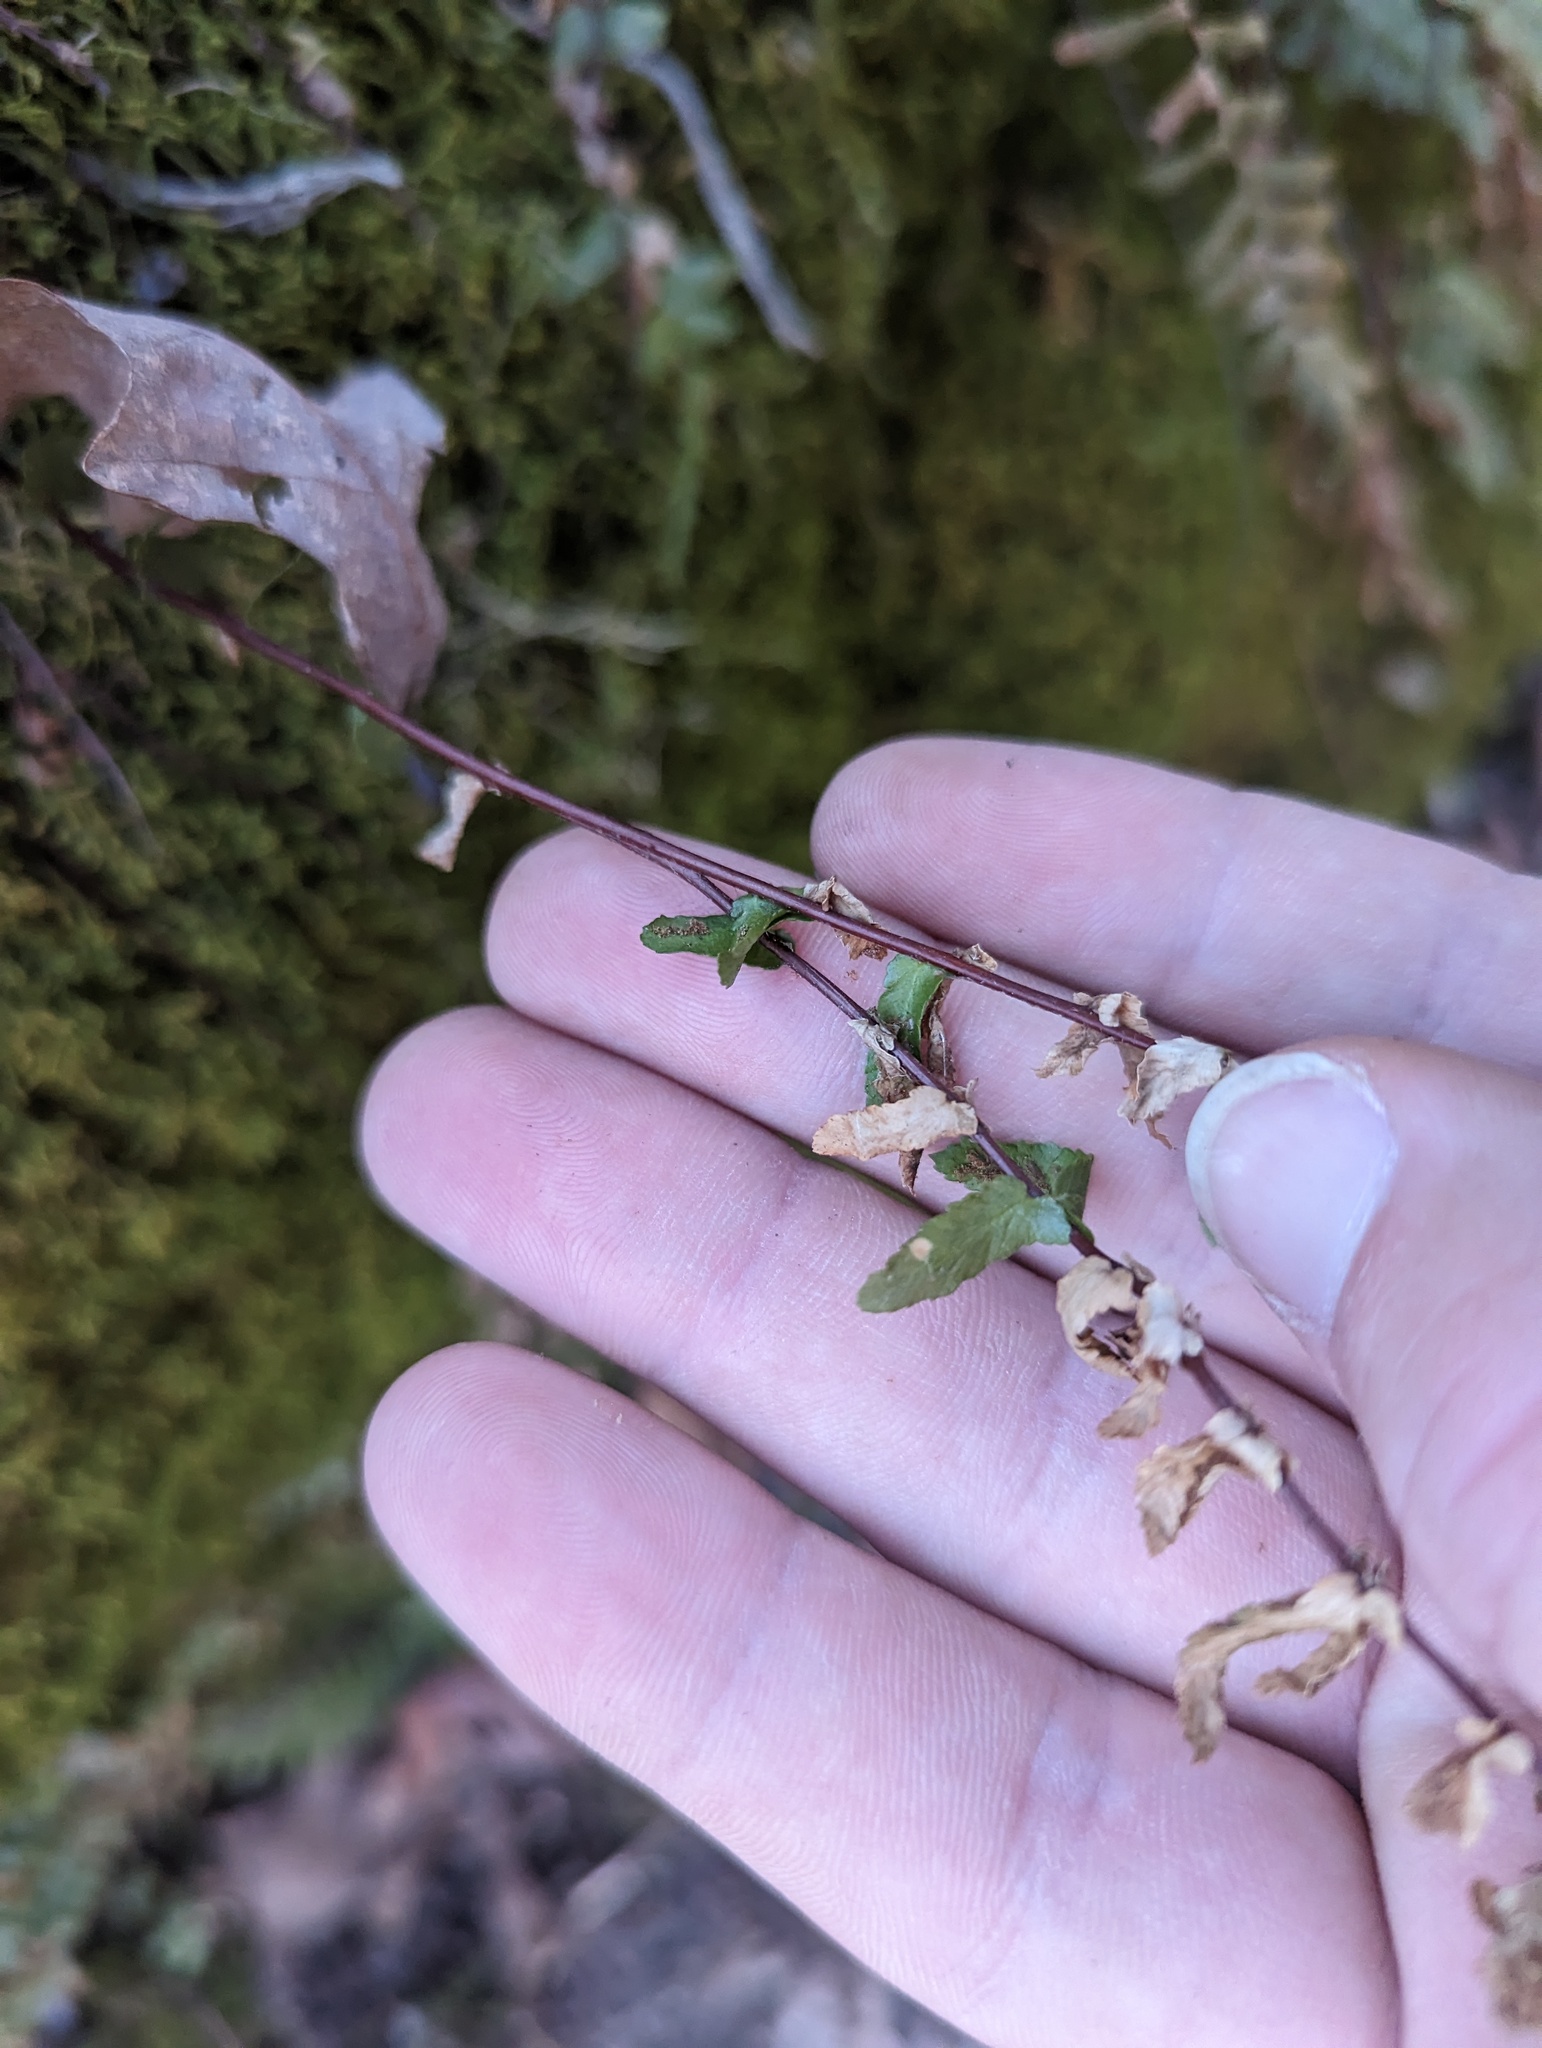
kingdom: Plantae
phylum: Tracheophyta
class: Polypodiopsida
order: Polypodiales
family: Aspleniaceae
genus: Asplenium
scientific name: Asplenium platyneuron
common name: Ebony spleenwort
